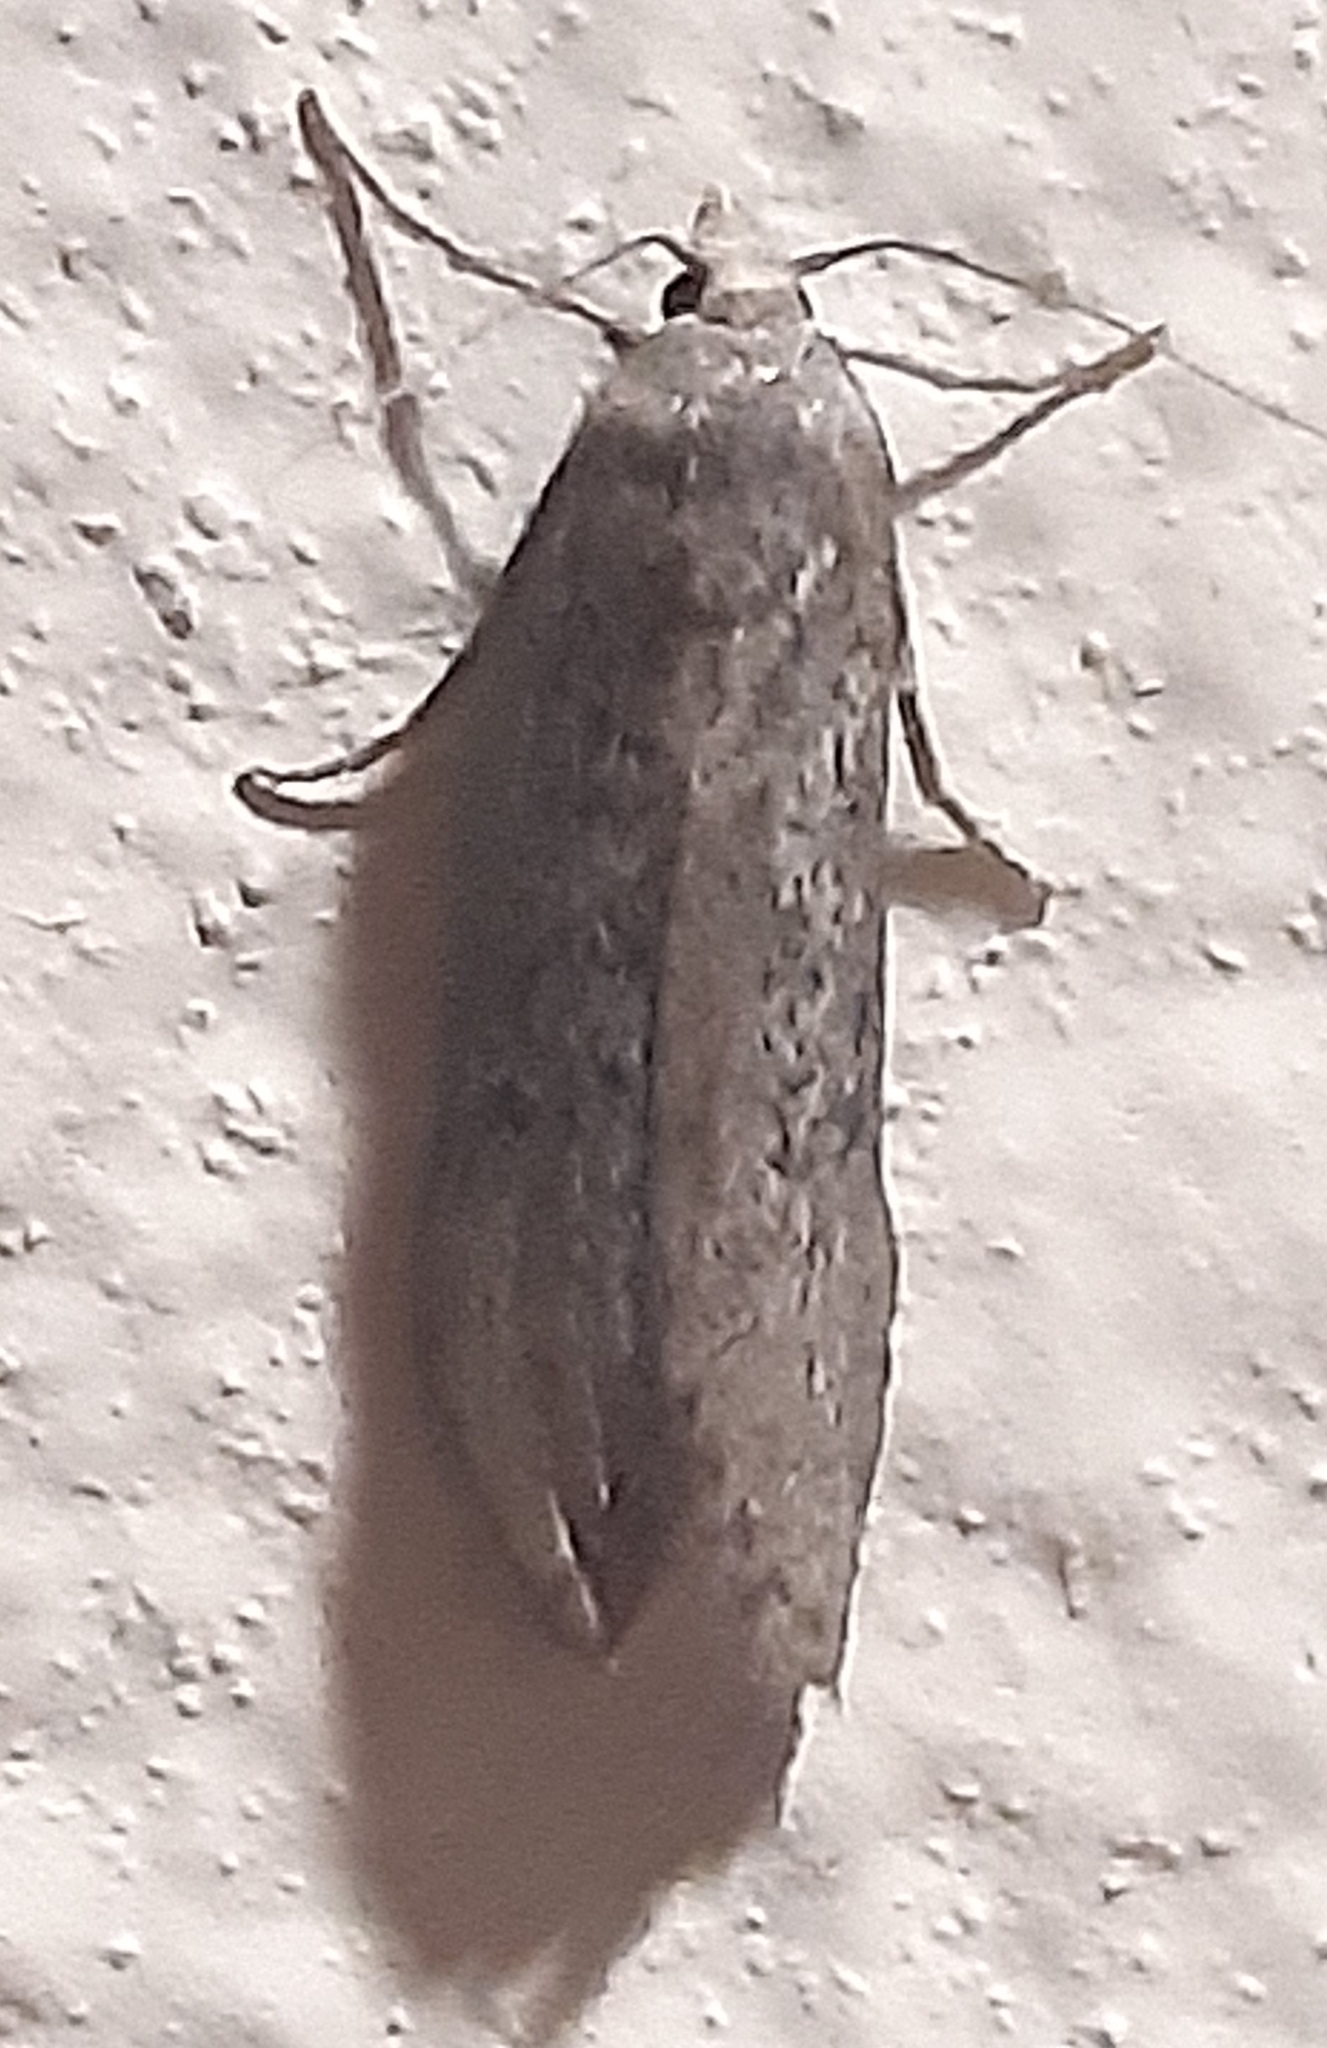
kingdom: Animalia
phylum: Arthropoda
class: Insecta
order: Lepidoptera
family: Pyralidae
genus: Lamoria
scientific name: Lamoria anella
